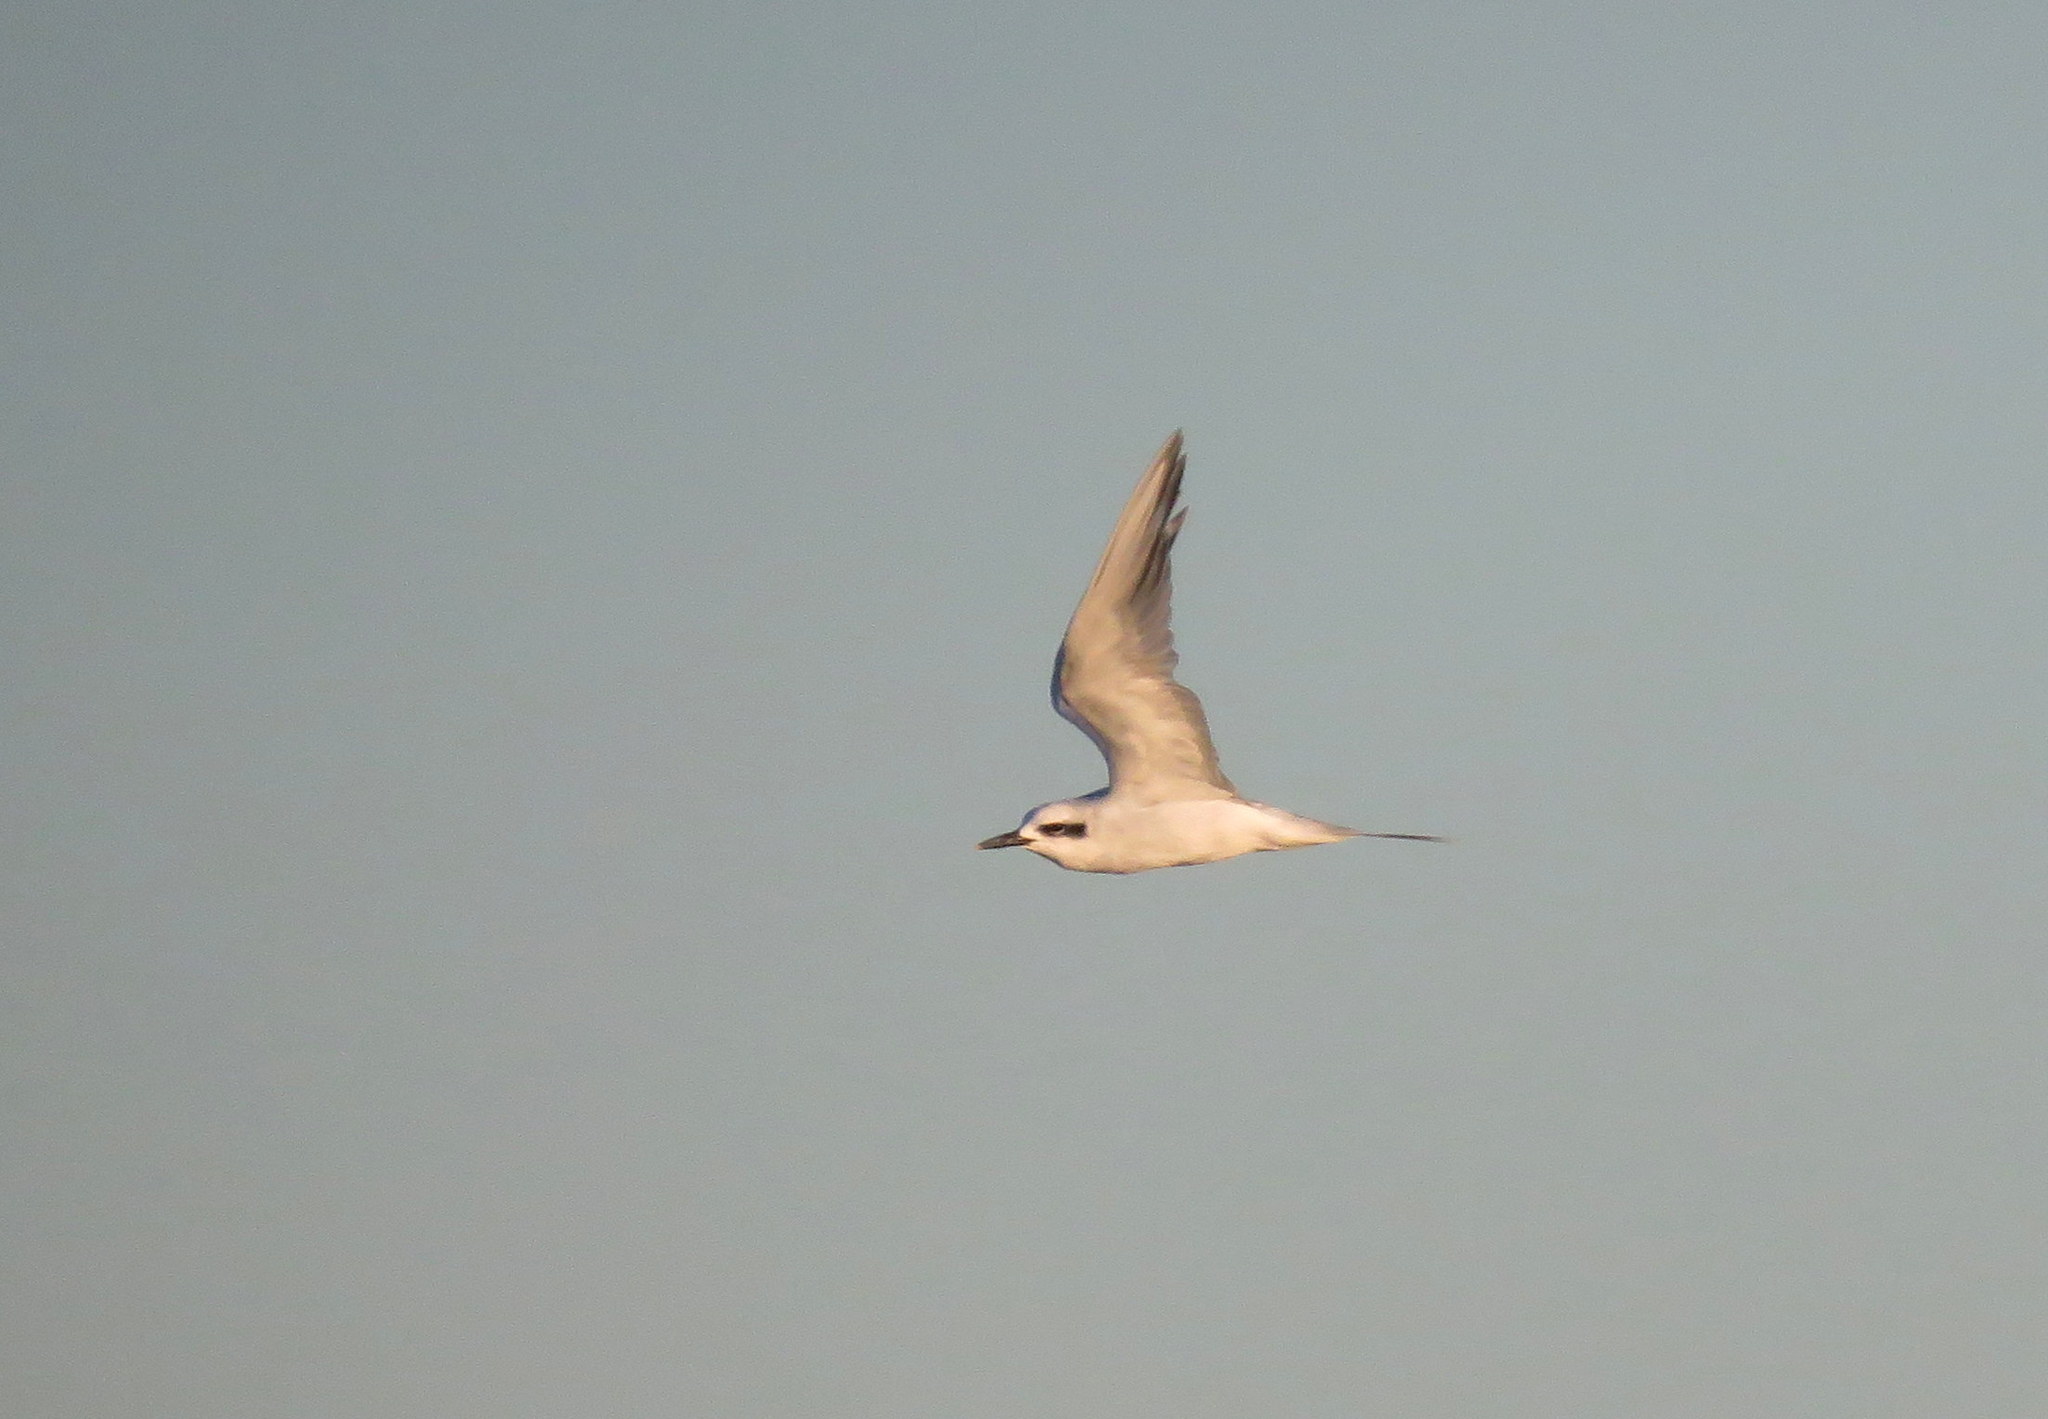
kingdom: Animalia
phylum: Chordata
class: Aves
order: Charadriiformes
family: Laridae
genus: Sterna
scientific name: Sterna trudeaui
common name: Snowy-crowned tern
